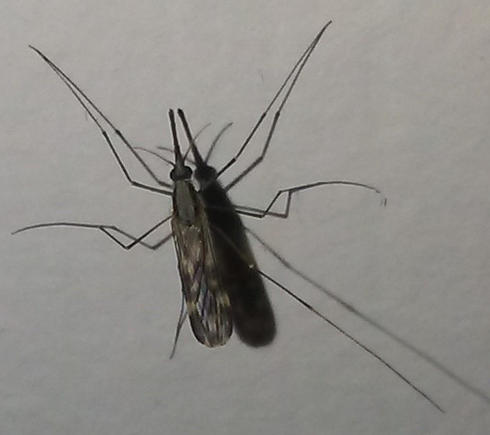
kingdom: Animalia
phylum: Arthropoda
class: Insecta
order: Diptera
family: Culicidae
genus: Anopheles
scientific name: Anopheles punctipennis
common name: Woodland malaria mosquito
